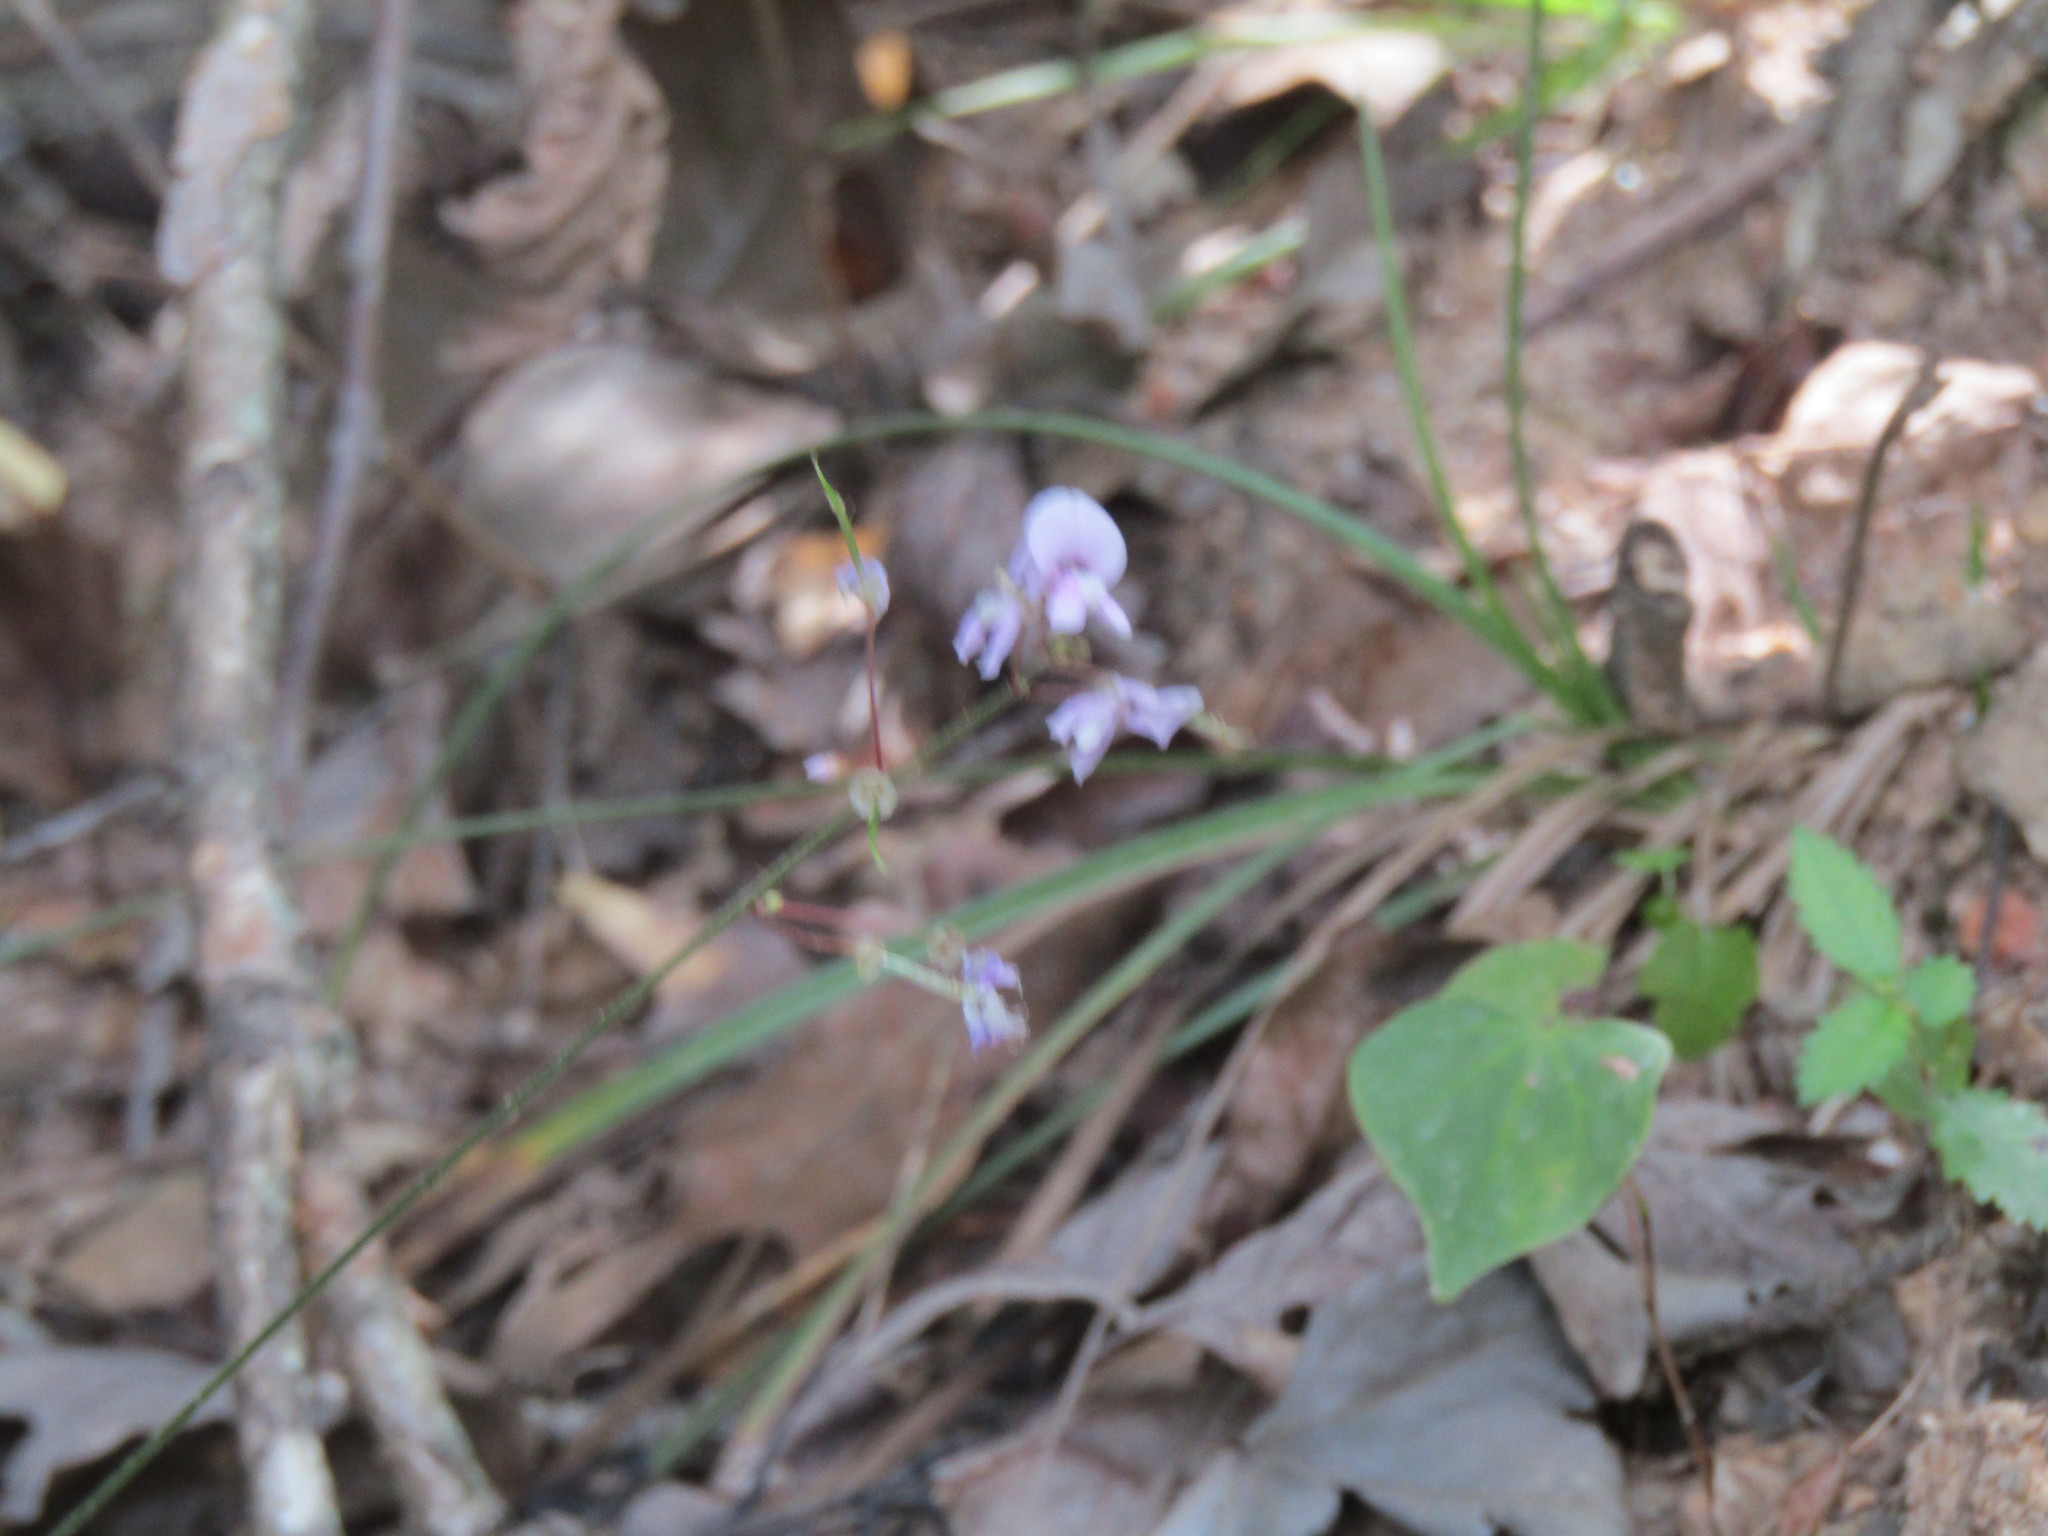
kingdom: Plantae
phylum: Tracheophyta
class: Magnoliopsida
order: Fabales
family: Fabaceae
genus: Hylodesmum
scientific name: Hylodesmum nudiflorum
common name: Bare-stemmed tick-trefoil
